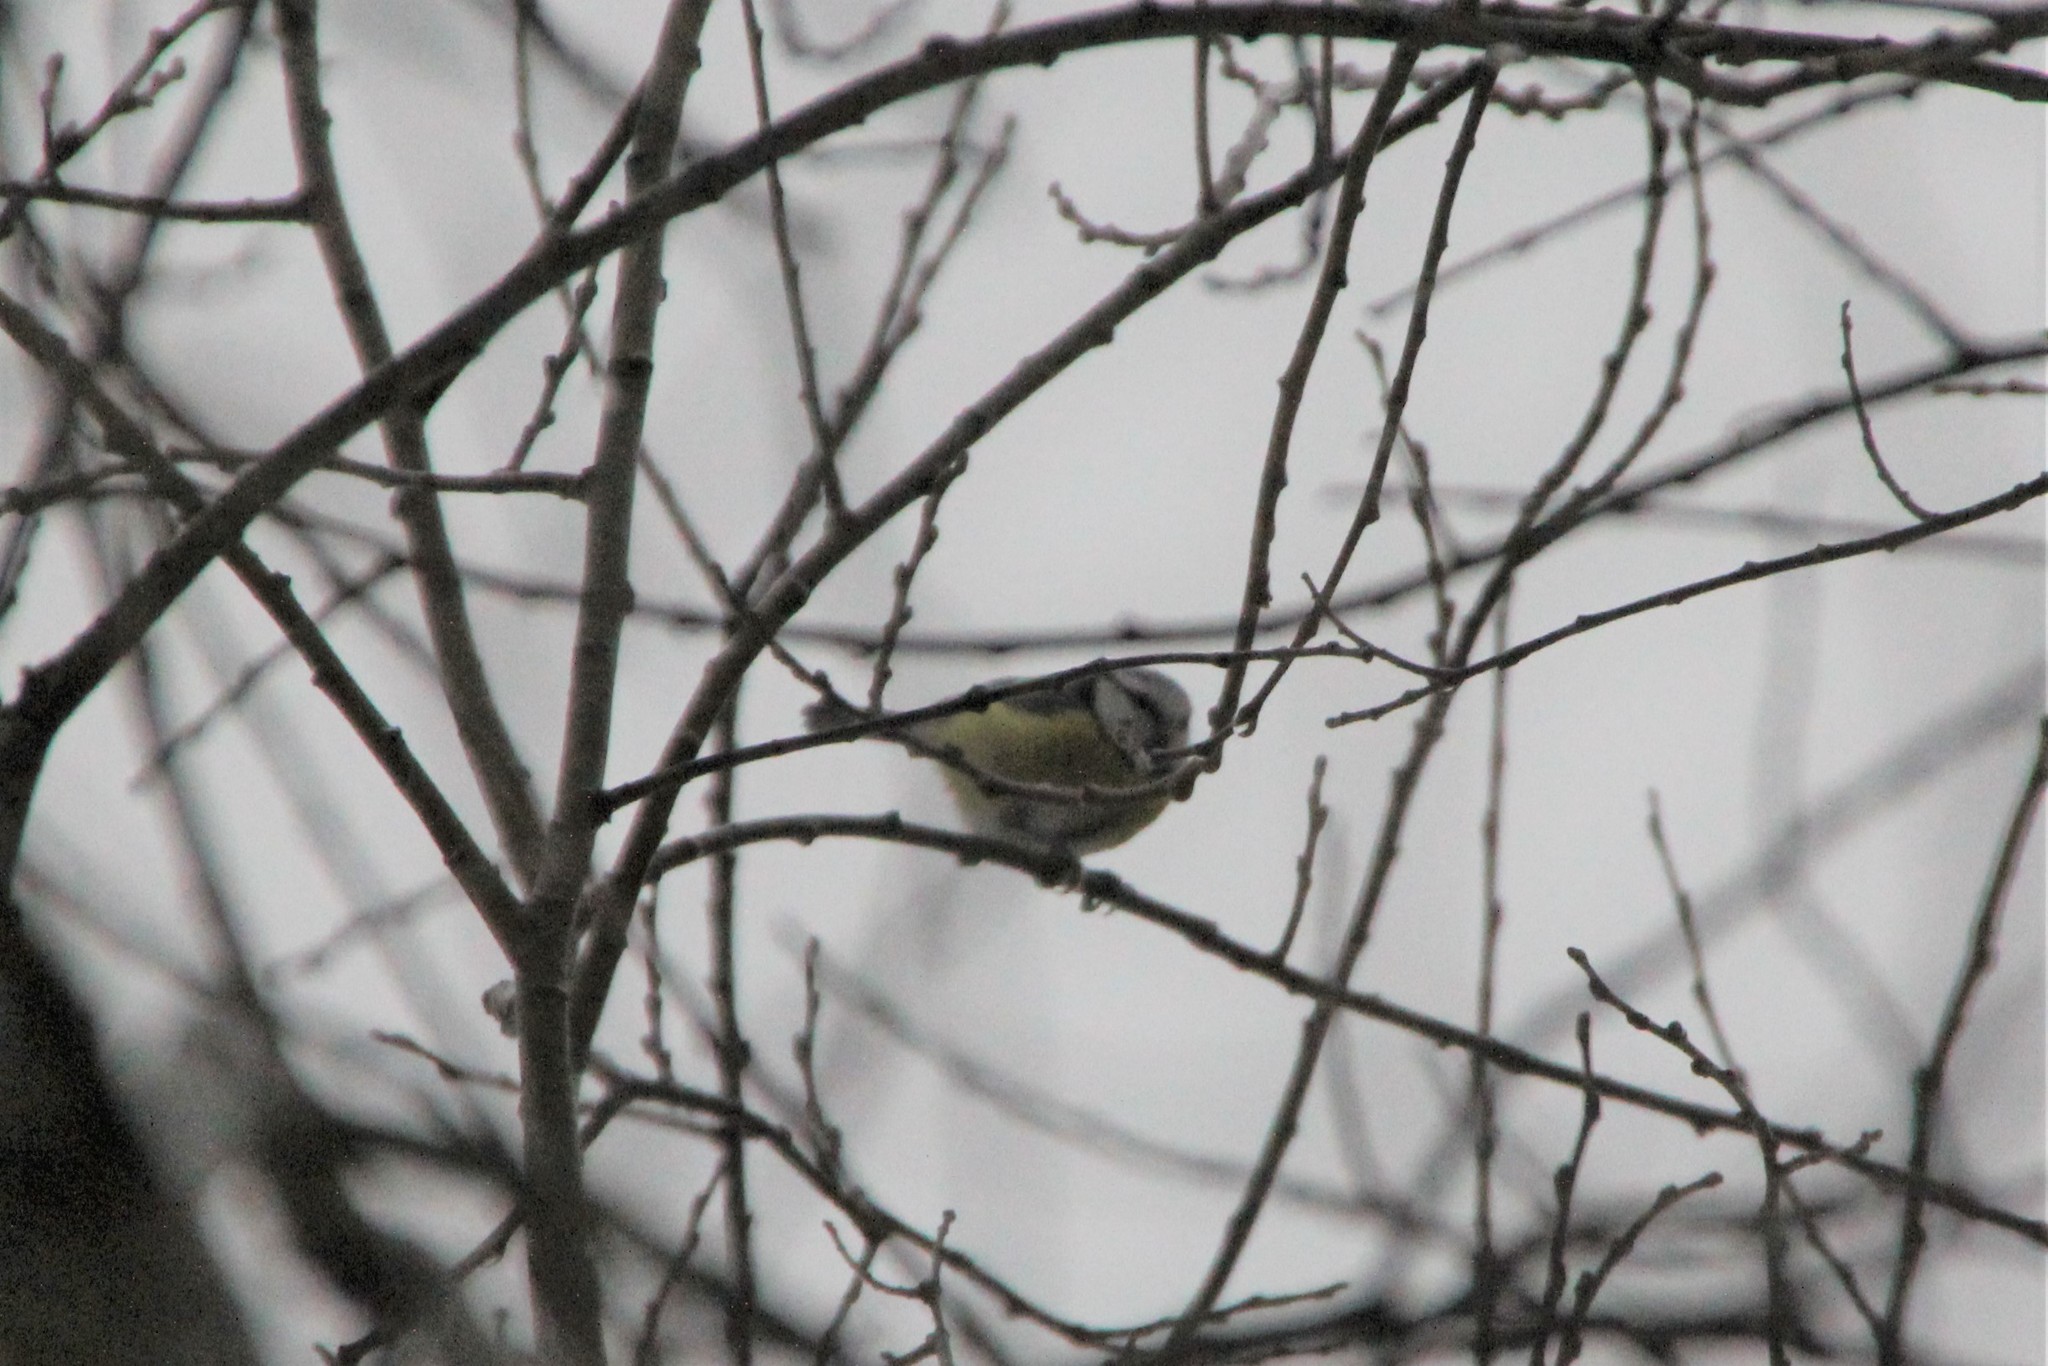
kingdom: Animalia
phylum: Chordata
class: Aves
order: Passeriformes
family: Paridae
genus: Cyanistes
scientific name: Cyanistes caeruleus
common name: Eurasian blue tit
